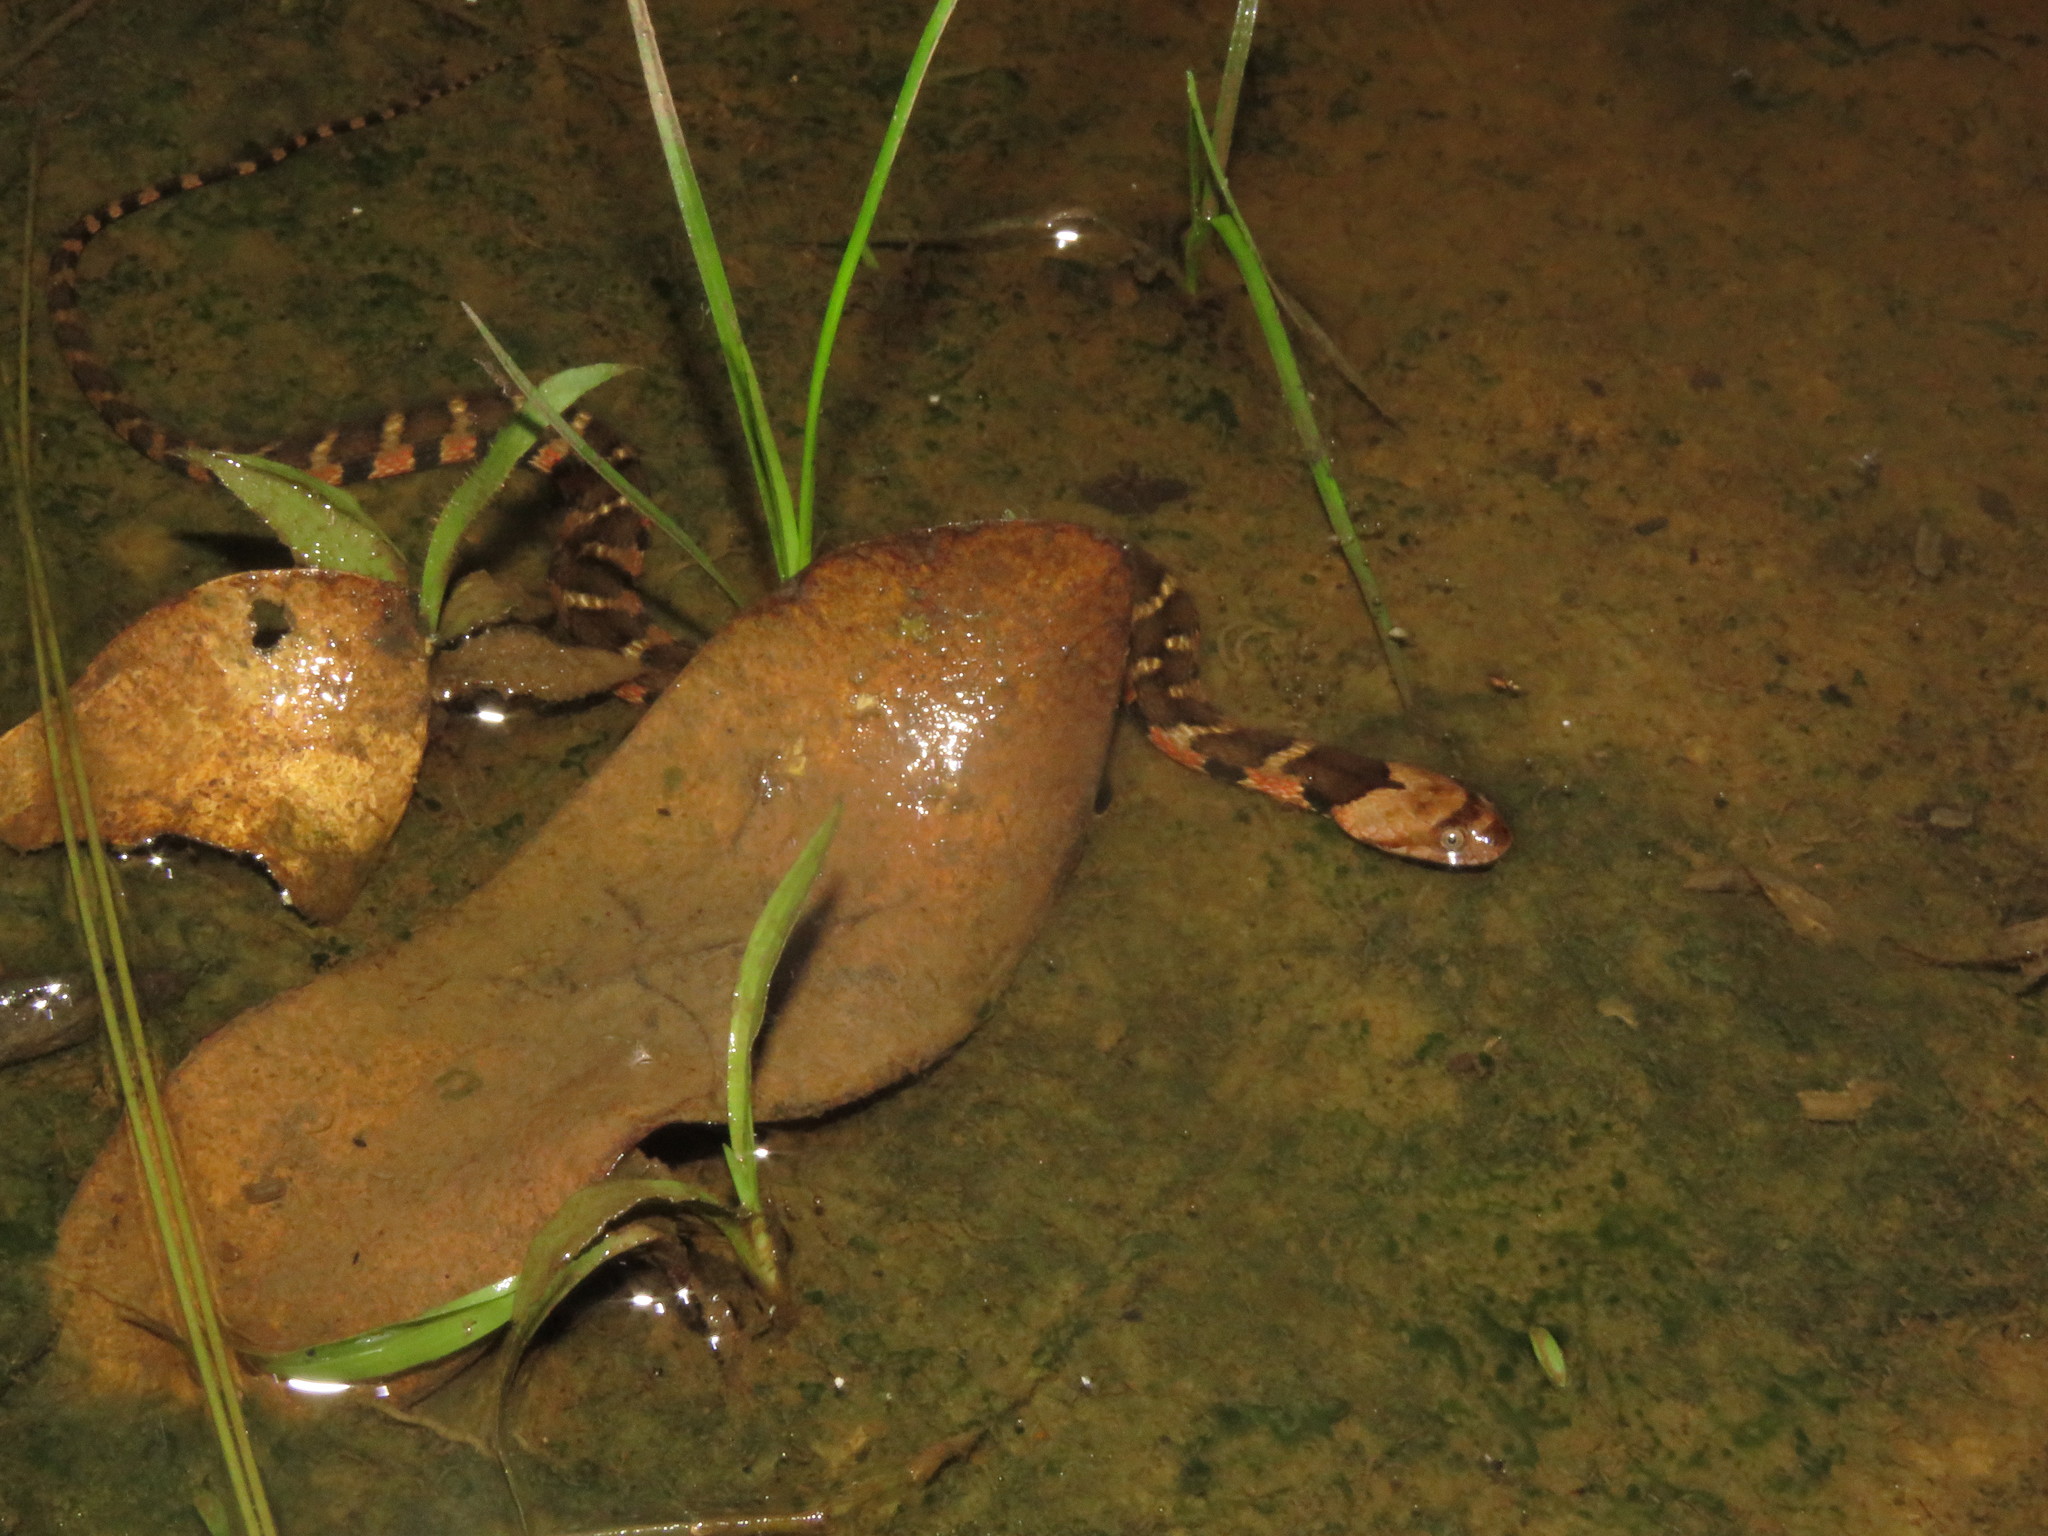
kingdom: Animalia
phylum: Chordata
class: Squamata
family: Colubridae
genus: Helicops
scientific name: Helicops angulatus
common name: Mountain keelback
